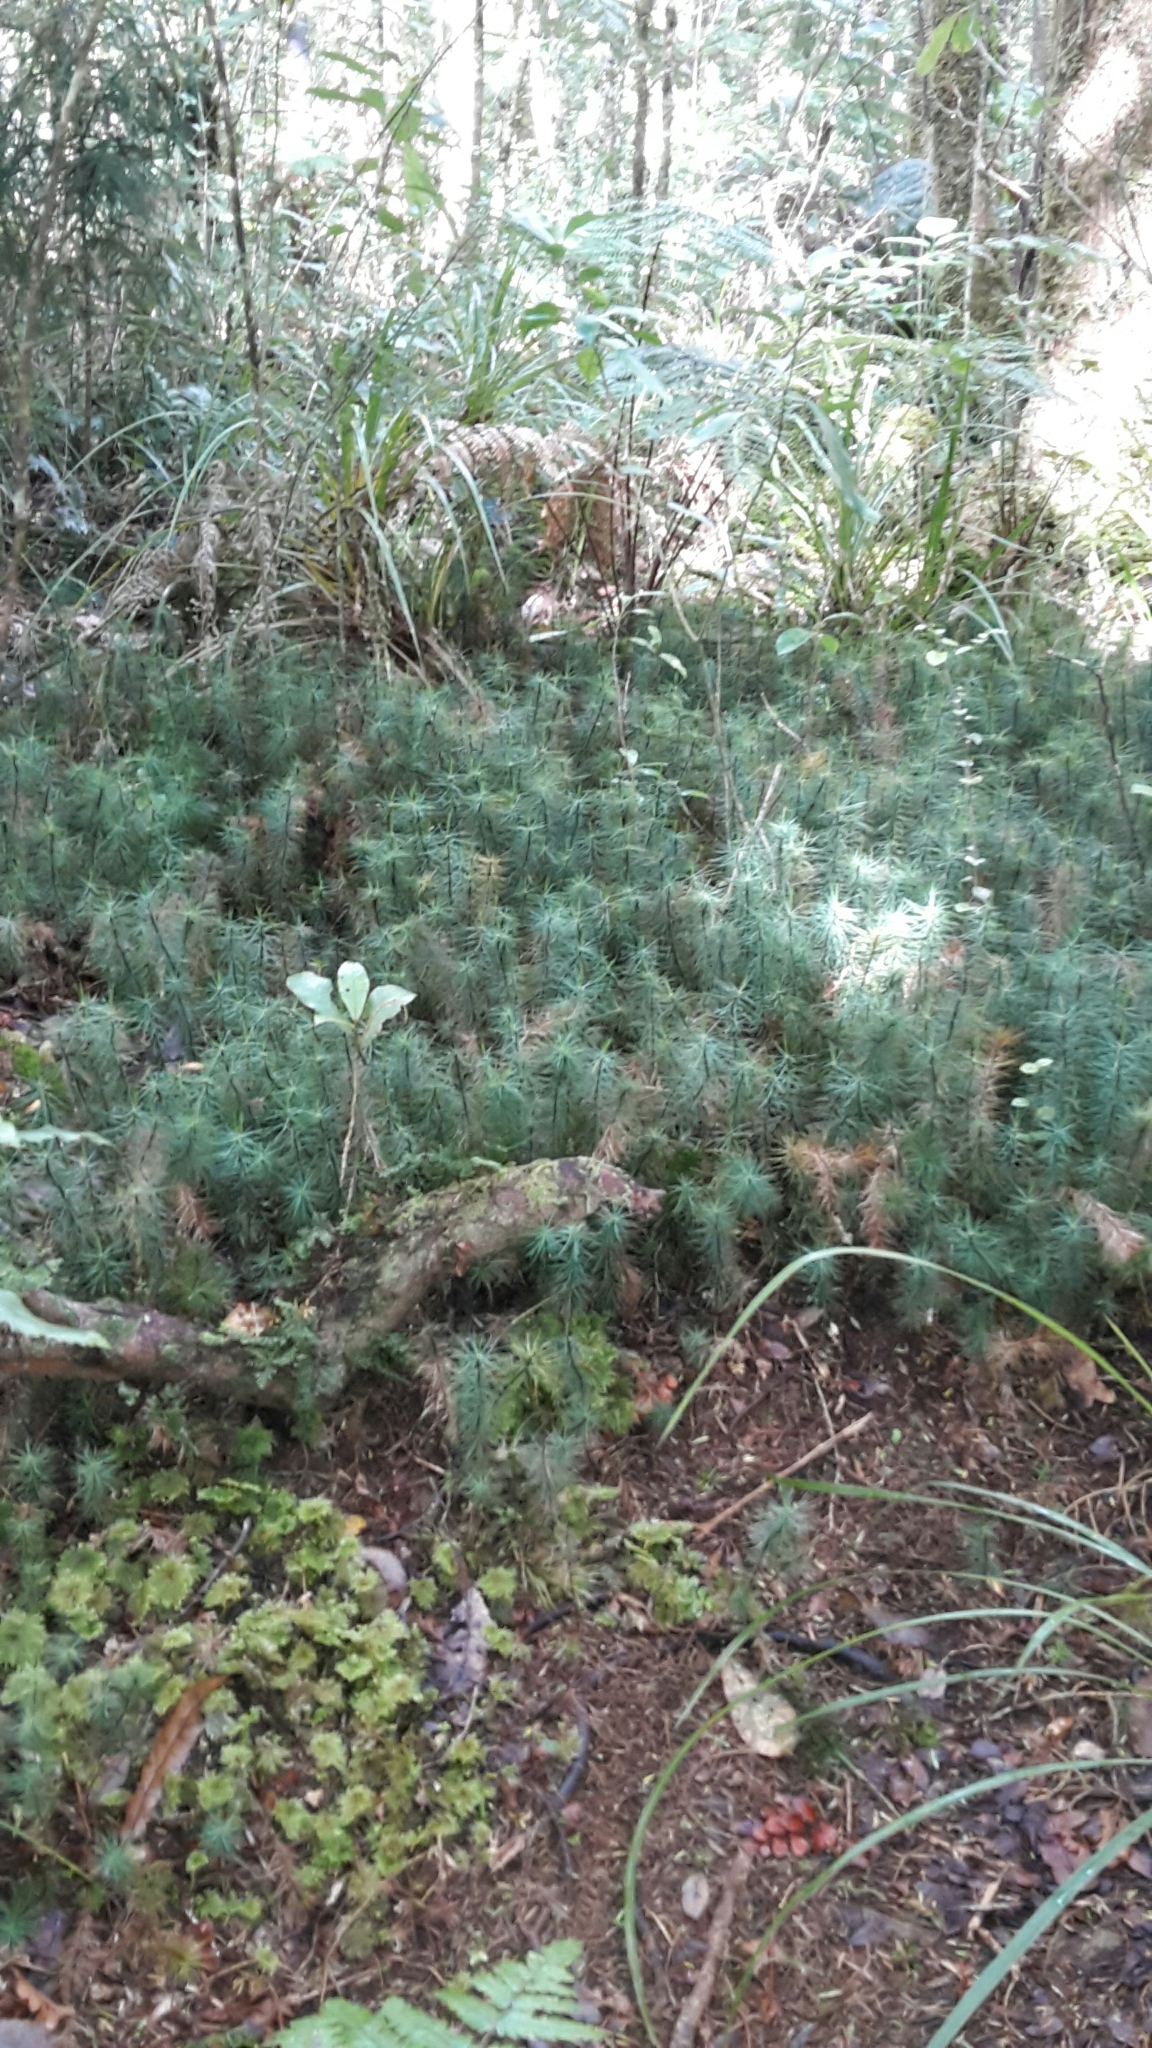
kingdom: Plantae
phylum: Bryophyta
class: Polytrichopsida
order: Polytrichales
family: Polytrichaceae
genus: Dawsonia
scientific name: Dawsonia superba
